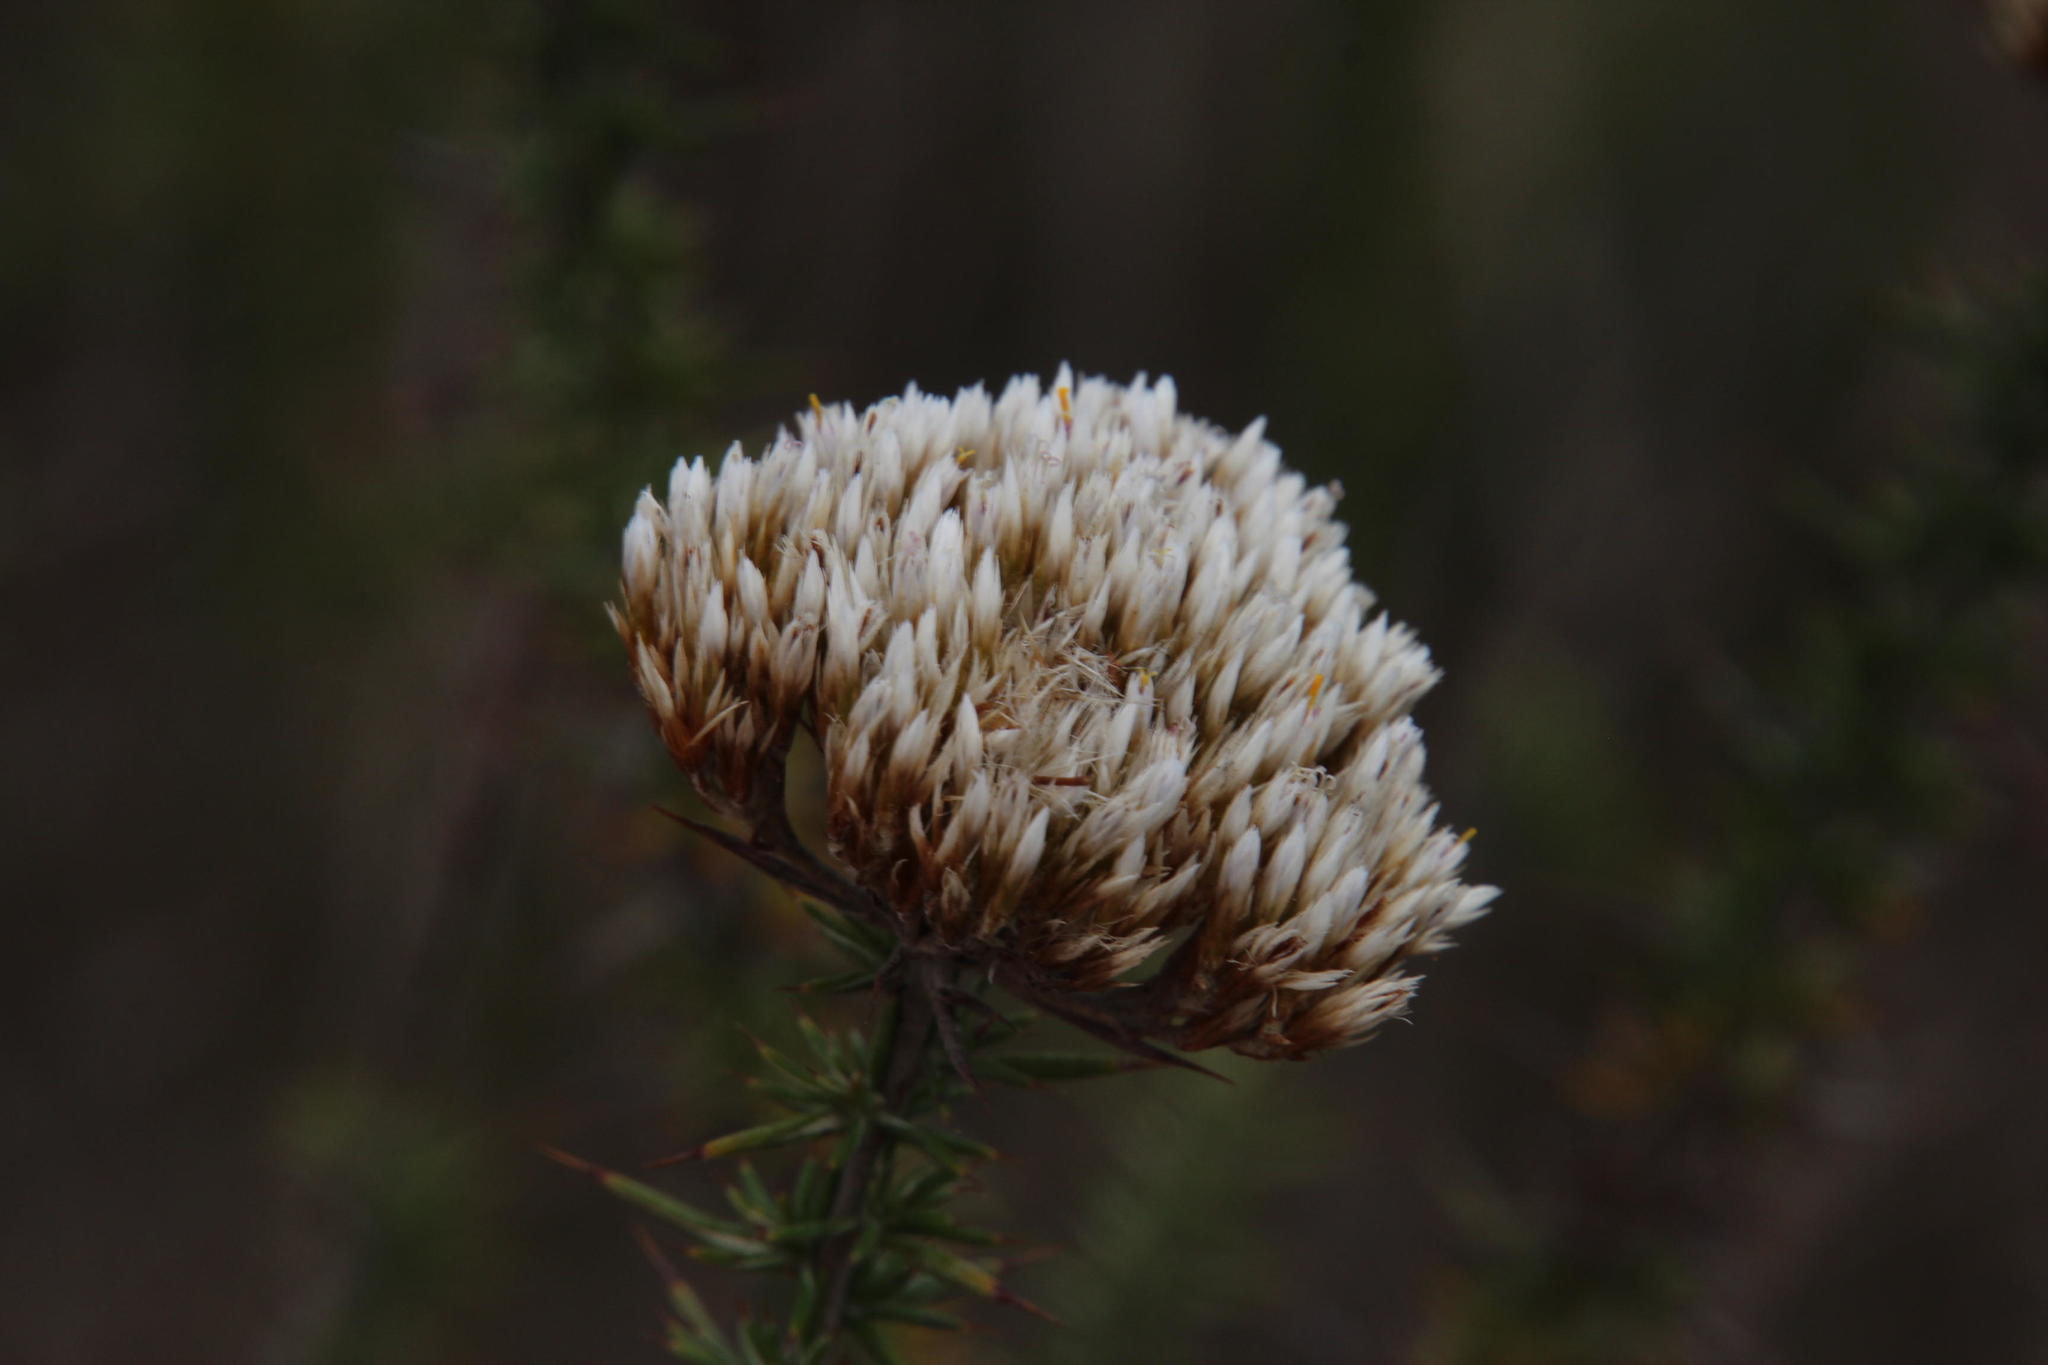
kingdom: Plantae
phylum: Tracheophyta
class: Magnoliopsida
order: Asterales
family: Asteraceae
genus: Metalasia
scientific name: Metalasia acuta
